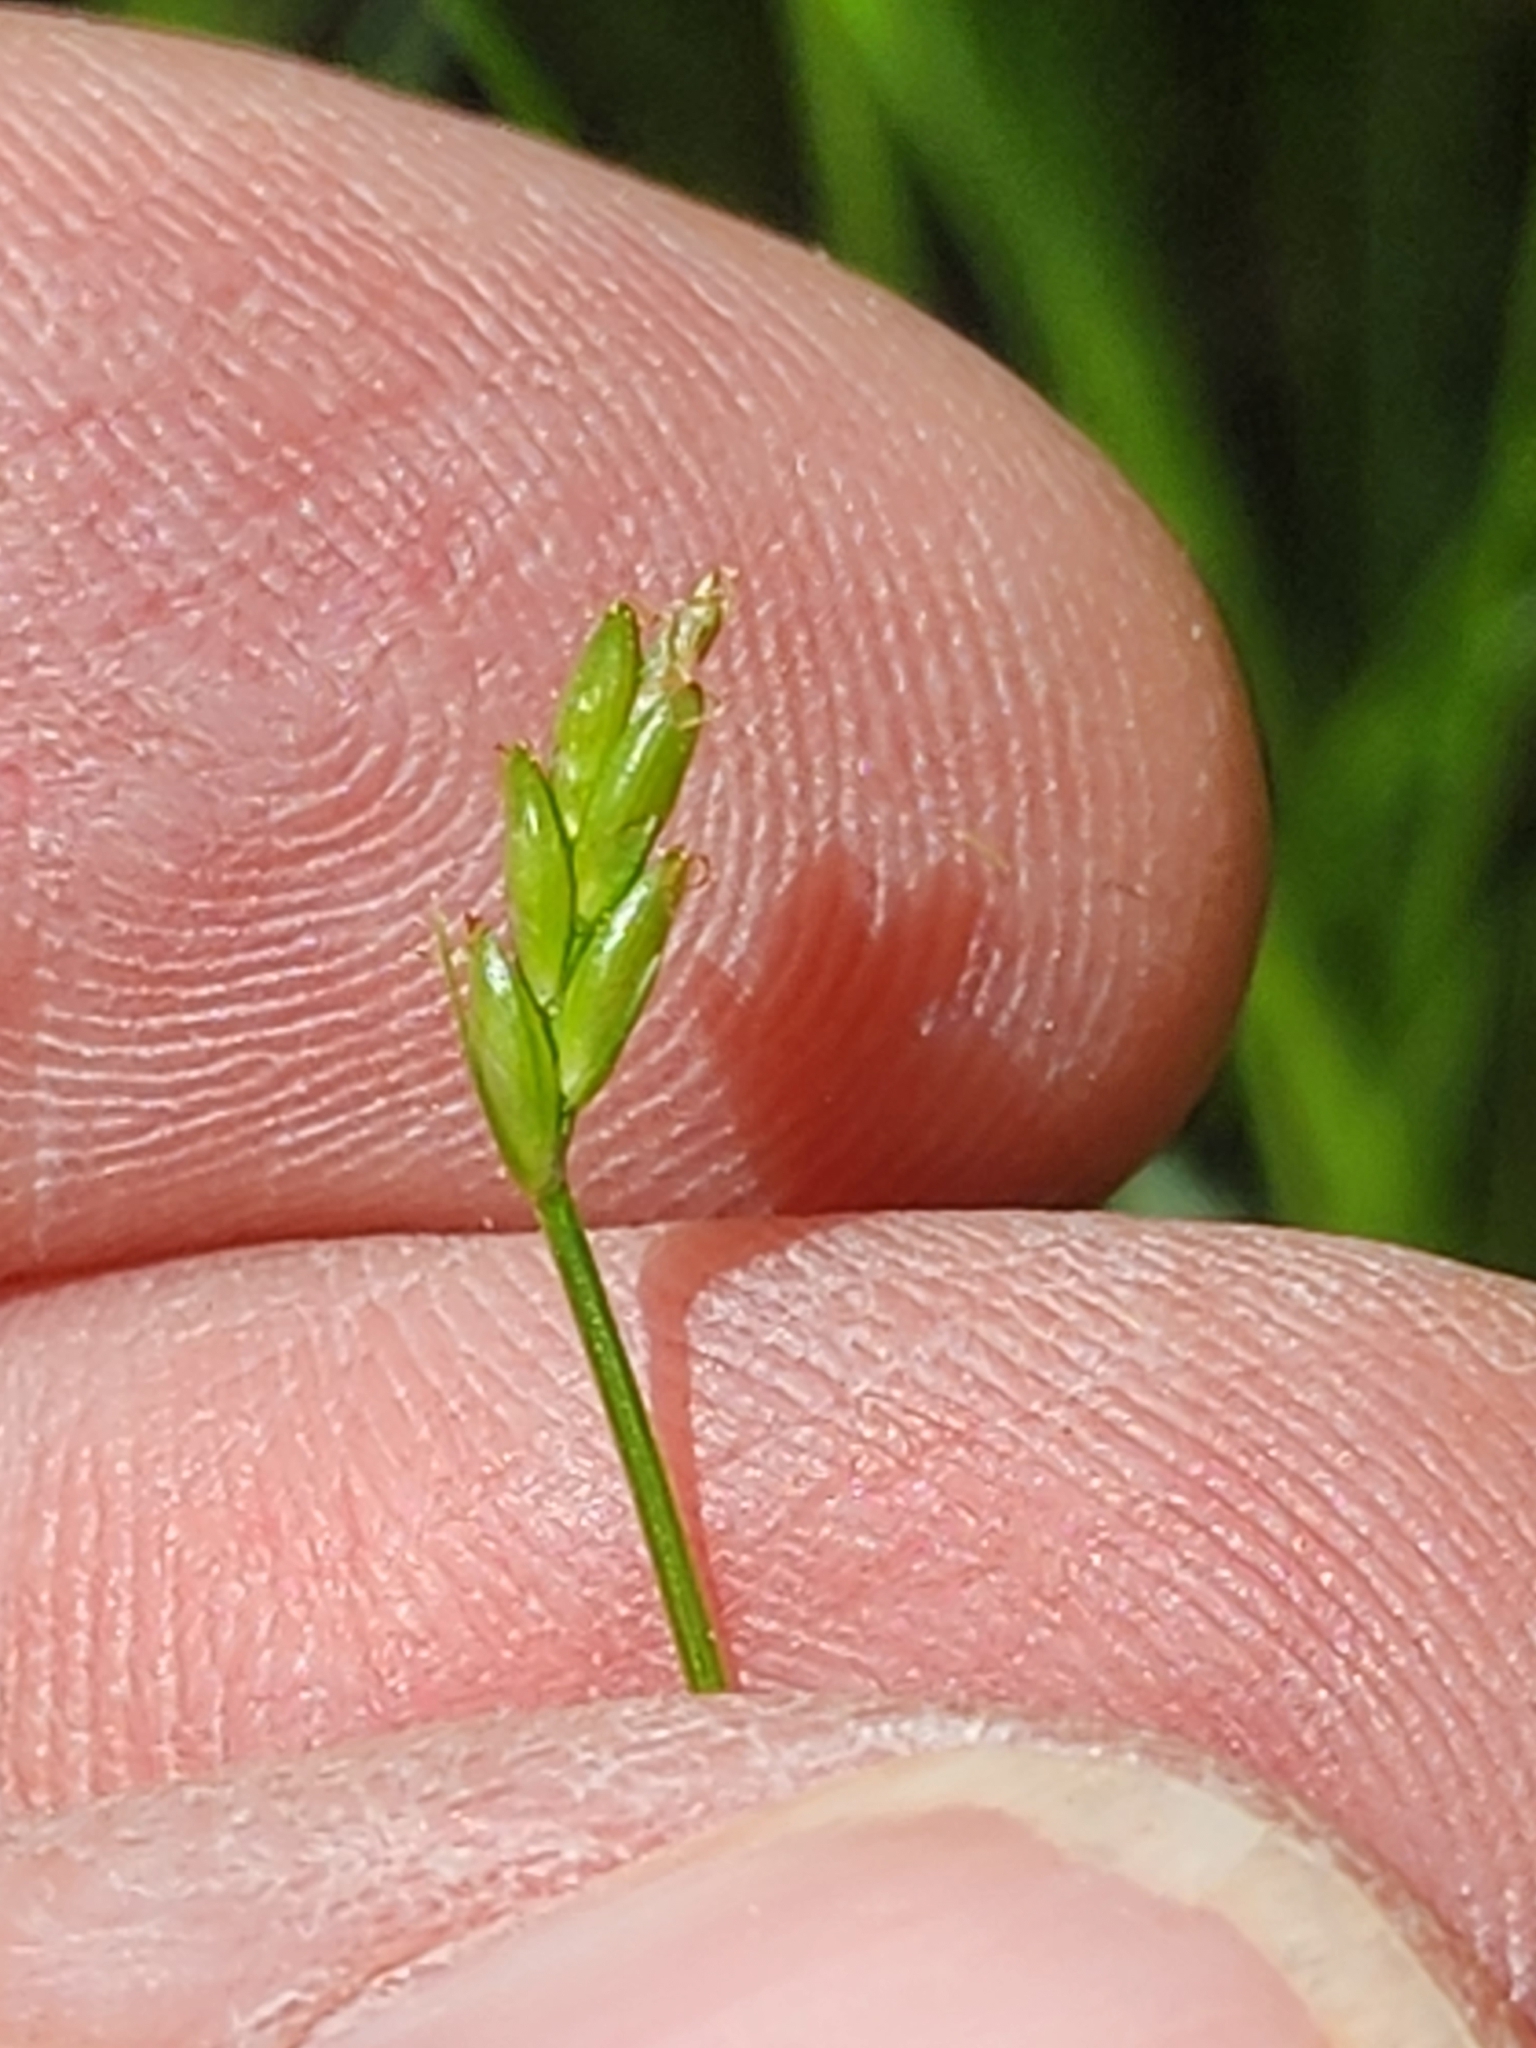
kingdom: Plantae
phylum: Tracheophyta
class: Liliopsida
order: Poales
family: Cyperaceae
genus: Carex
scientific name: Carex leptalea
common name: Bristly-stalked sedge
